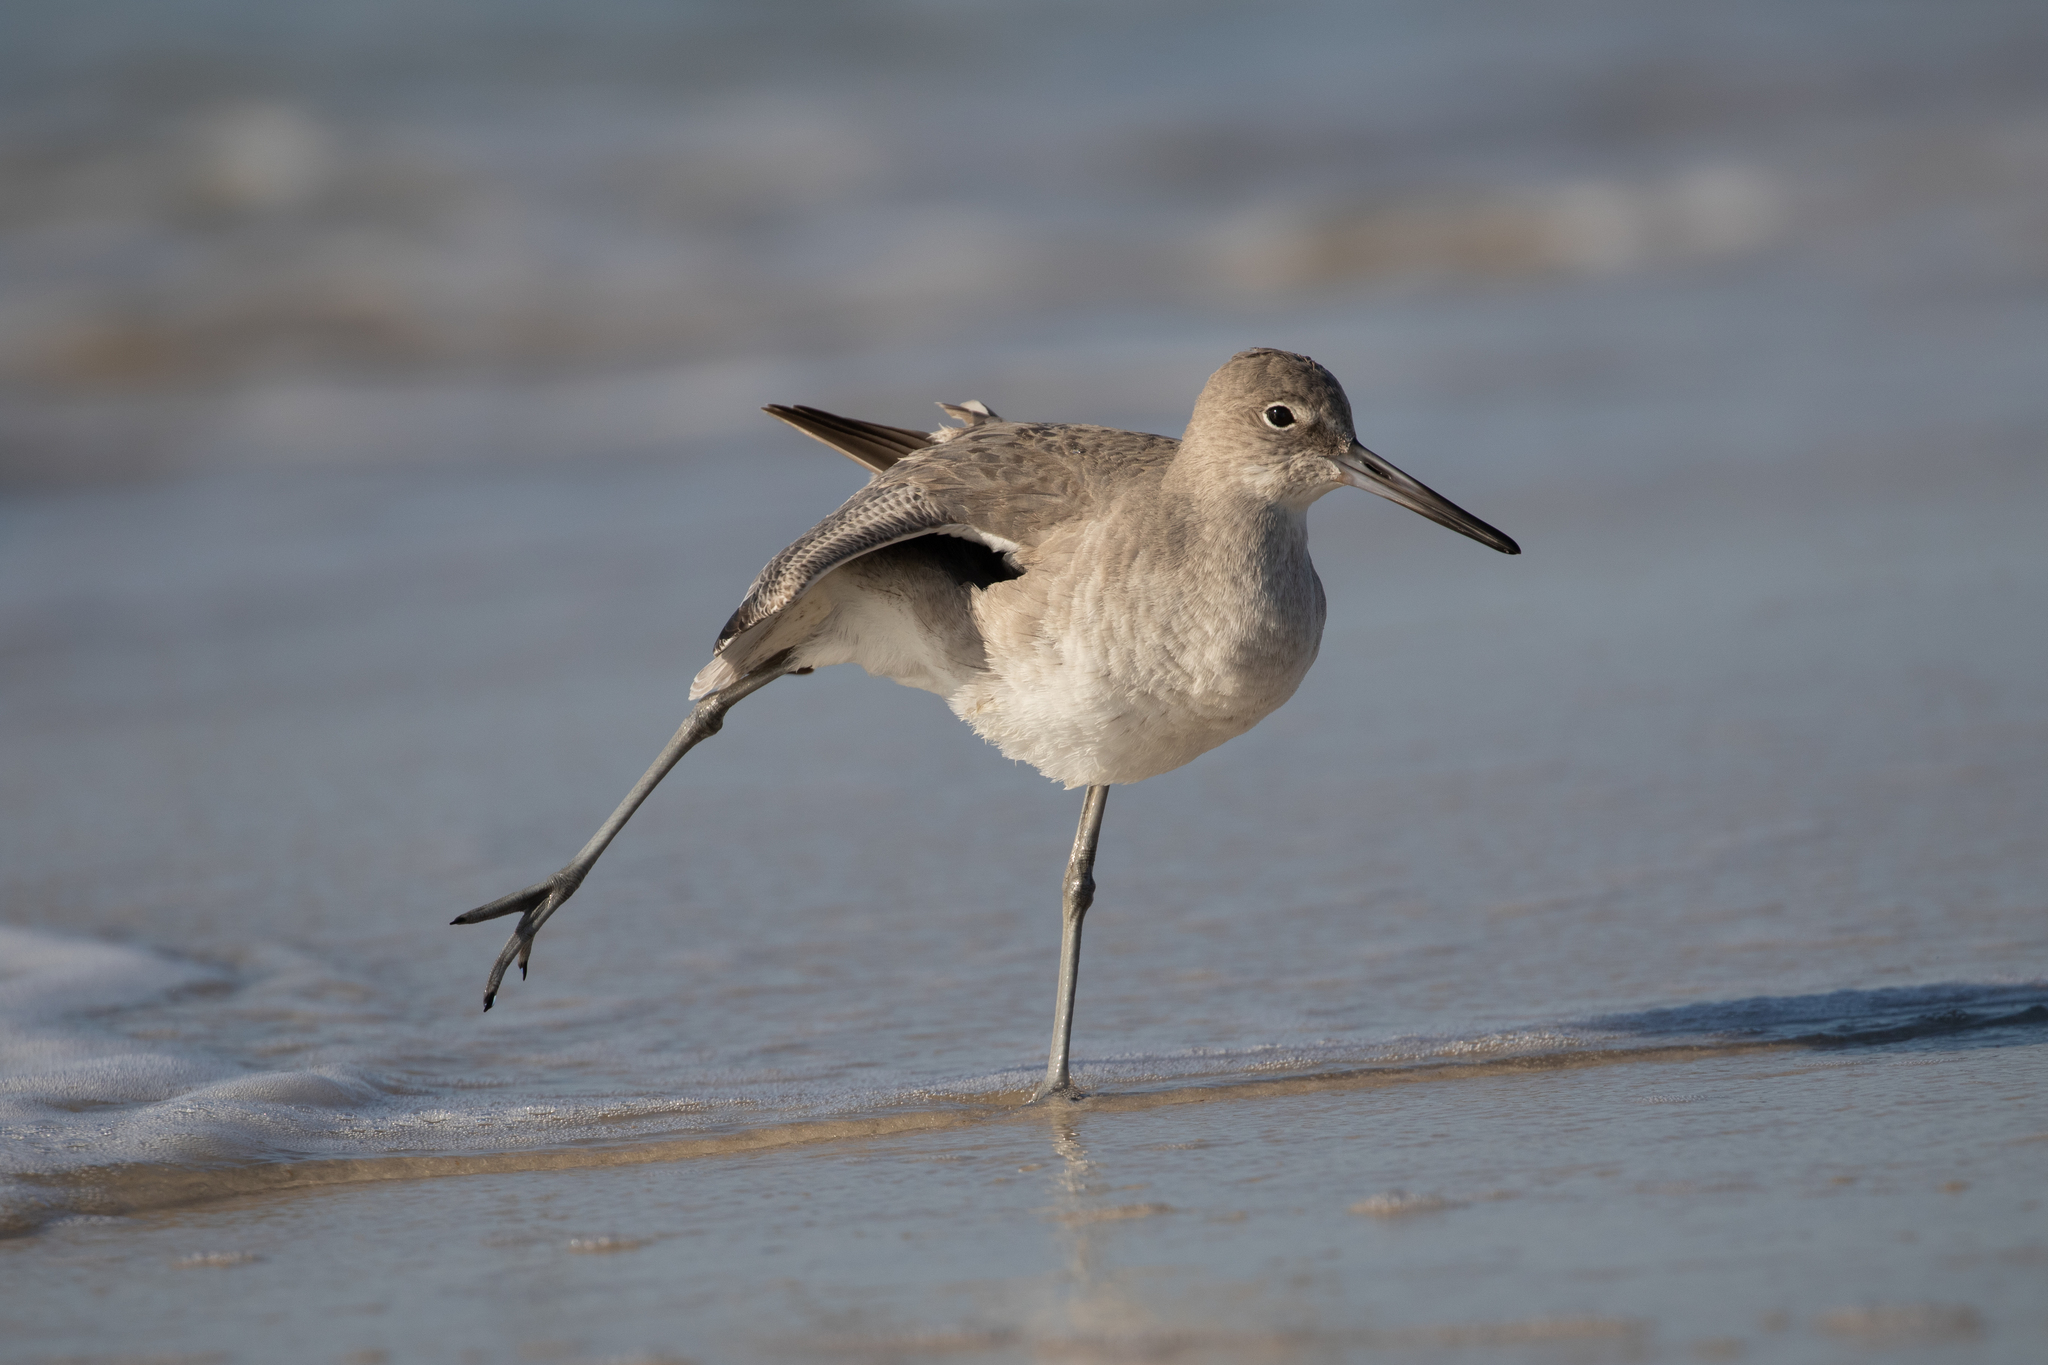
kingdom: Animalia
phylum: Chordata
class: Aves
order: Charadriiformes
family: Scolopacidae
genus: Tringa
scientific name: Tringa semipalmata
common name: Willet
